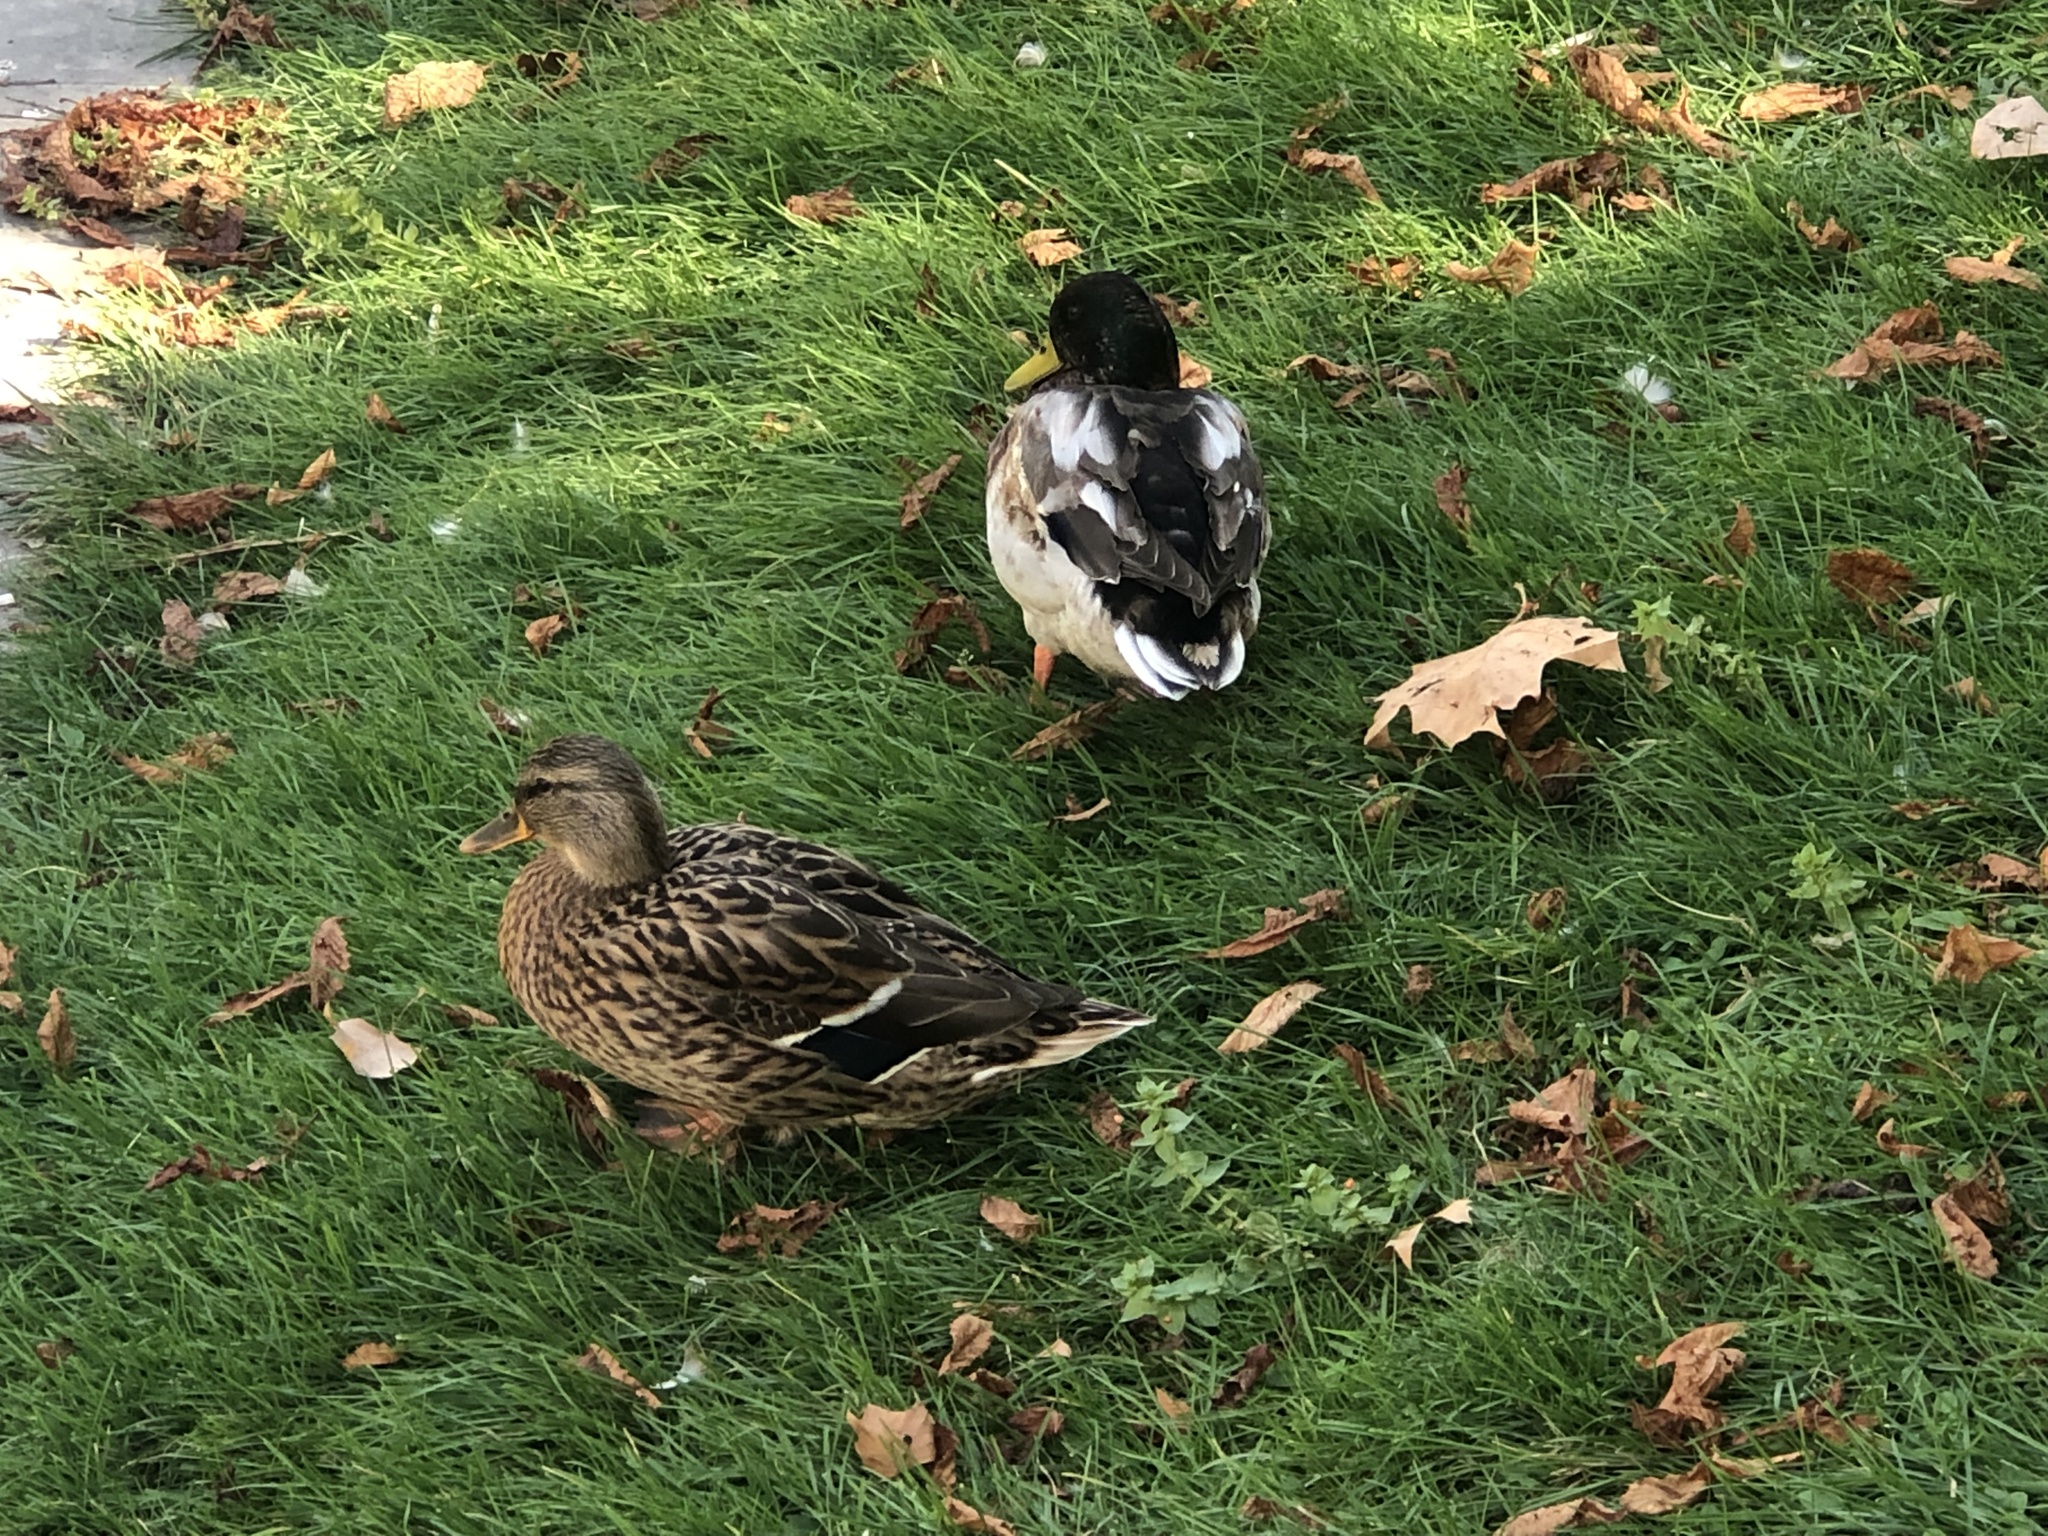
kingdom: Animalia
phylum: Chordata
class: Aves
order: Anseriformes
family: Anatidae
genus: Anas
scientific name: Anas platyrhynchos
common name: Mallard
